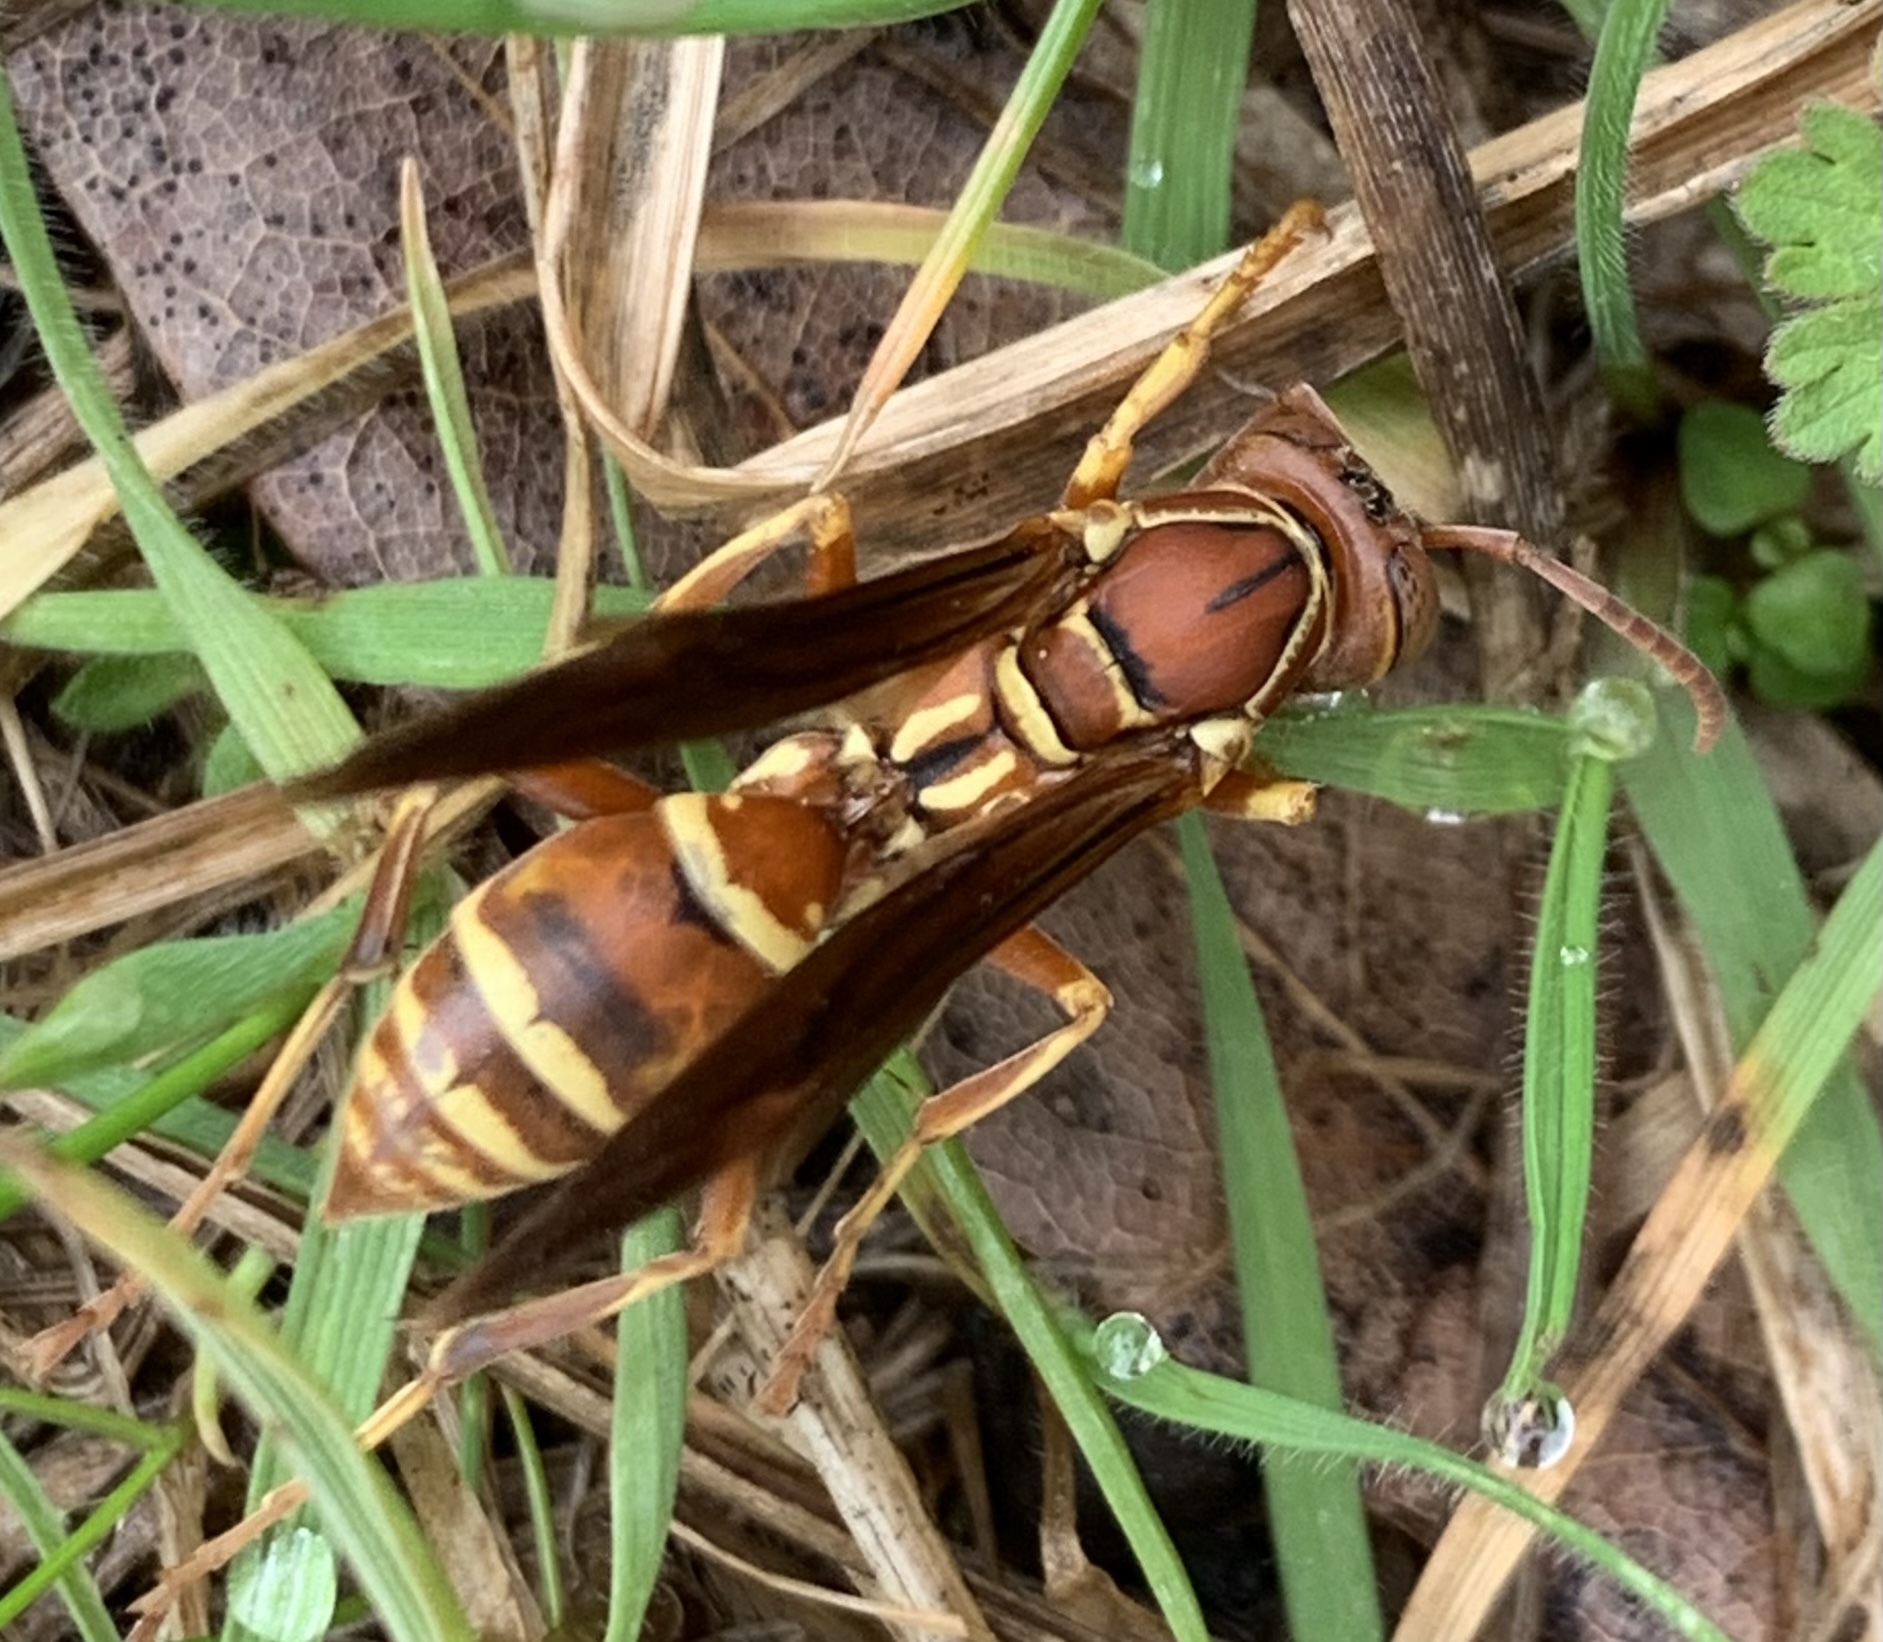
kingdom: Animalia
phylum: Arthropoda
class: Insecta
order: Hymenoptera
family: Eumenidae
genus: Polistes
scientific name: Polistes dorsalis
